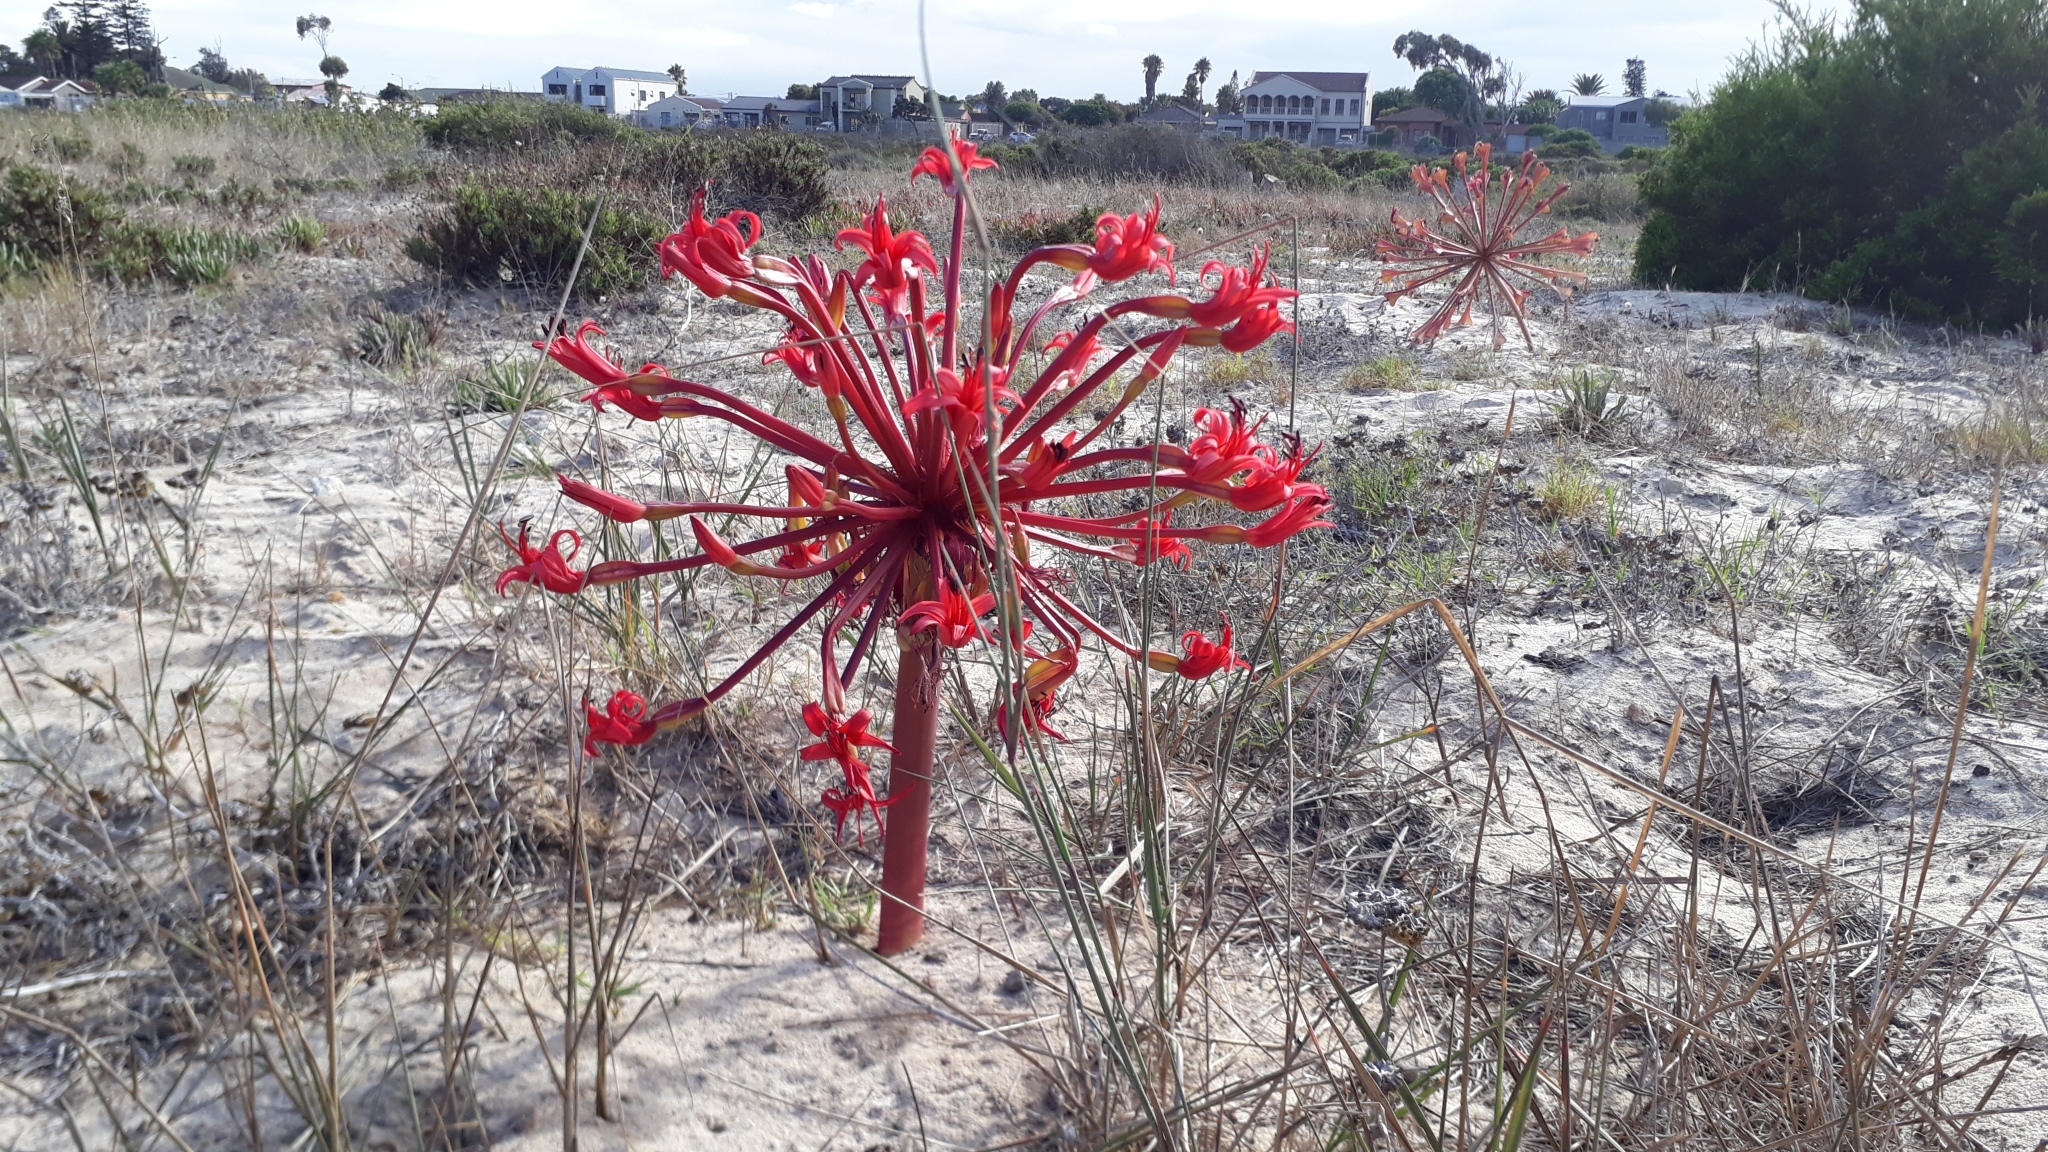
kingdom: Plantae
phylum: Tracheophyta
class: Liliopsida
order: Asparagales
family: Amaryllidaceae
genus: Brunsvigia
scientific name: Brunsvigia orientalis
